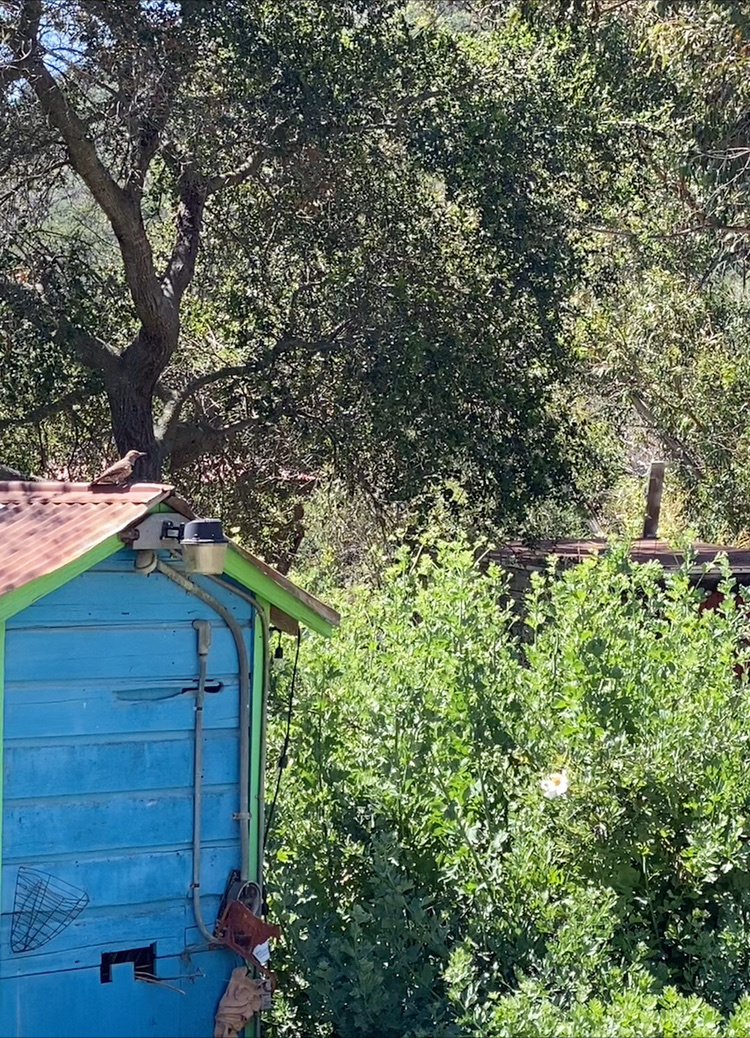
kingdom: Animalia
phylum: Chordata
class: Aves
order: Piciformes
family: Picidae
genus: Colaptes
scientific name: Colaptes auratus
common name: Northern flicker
